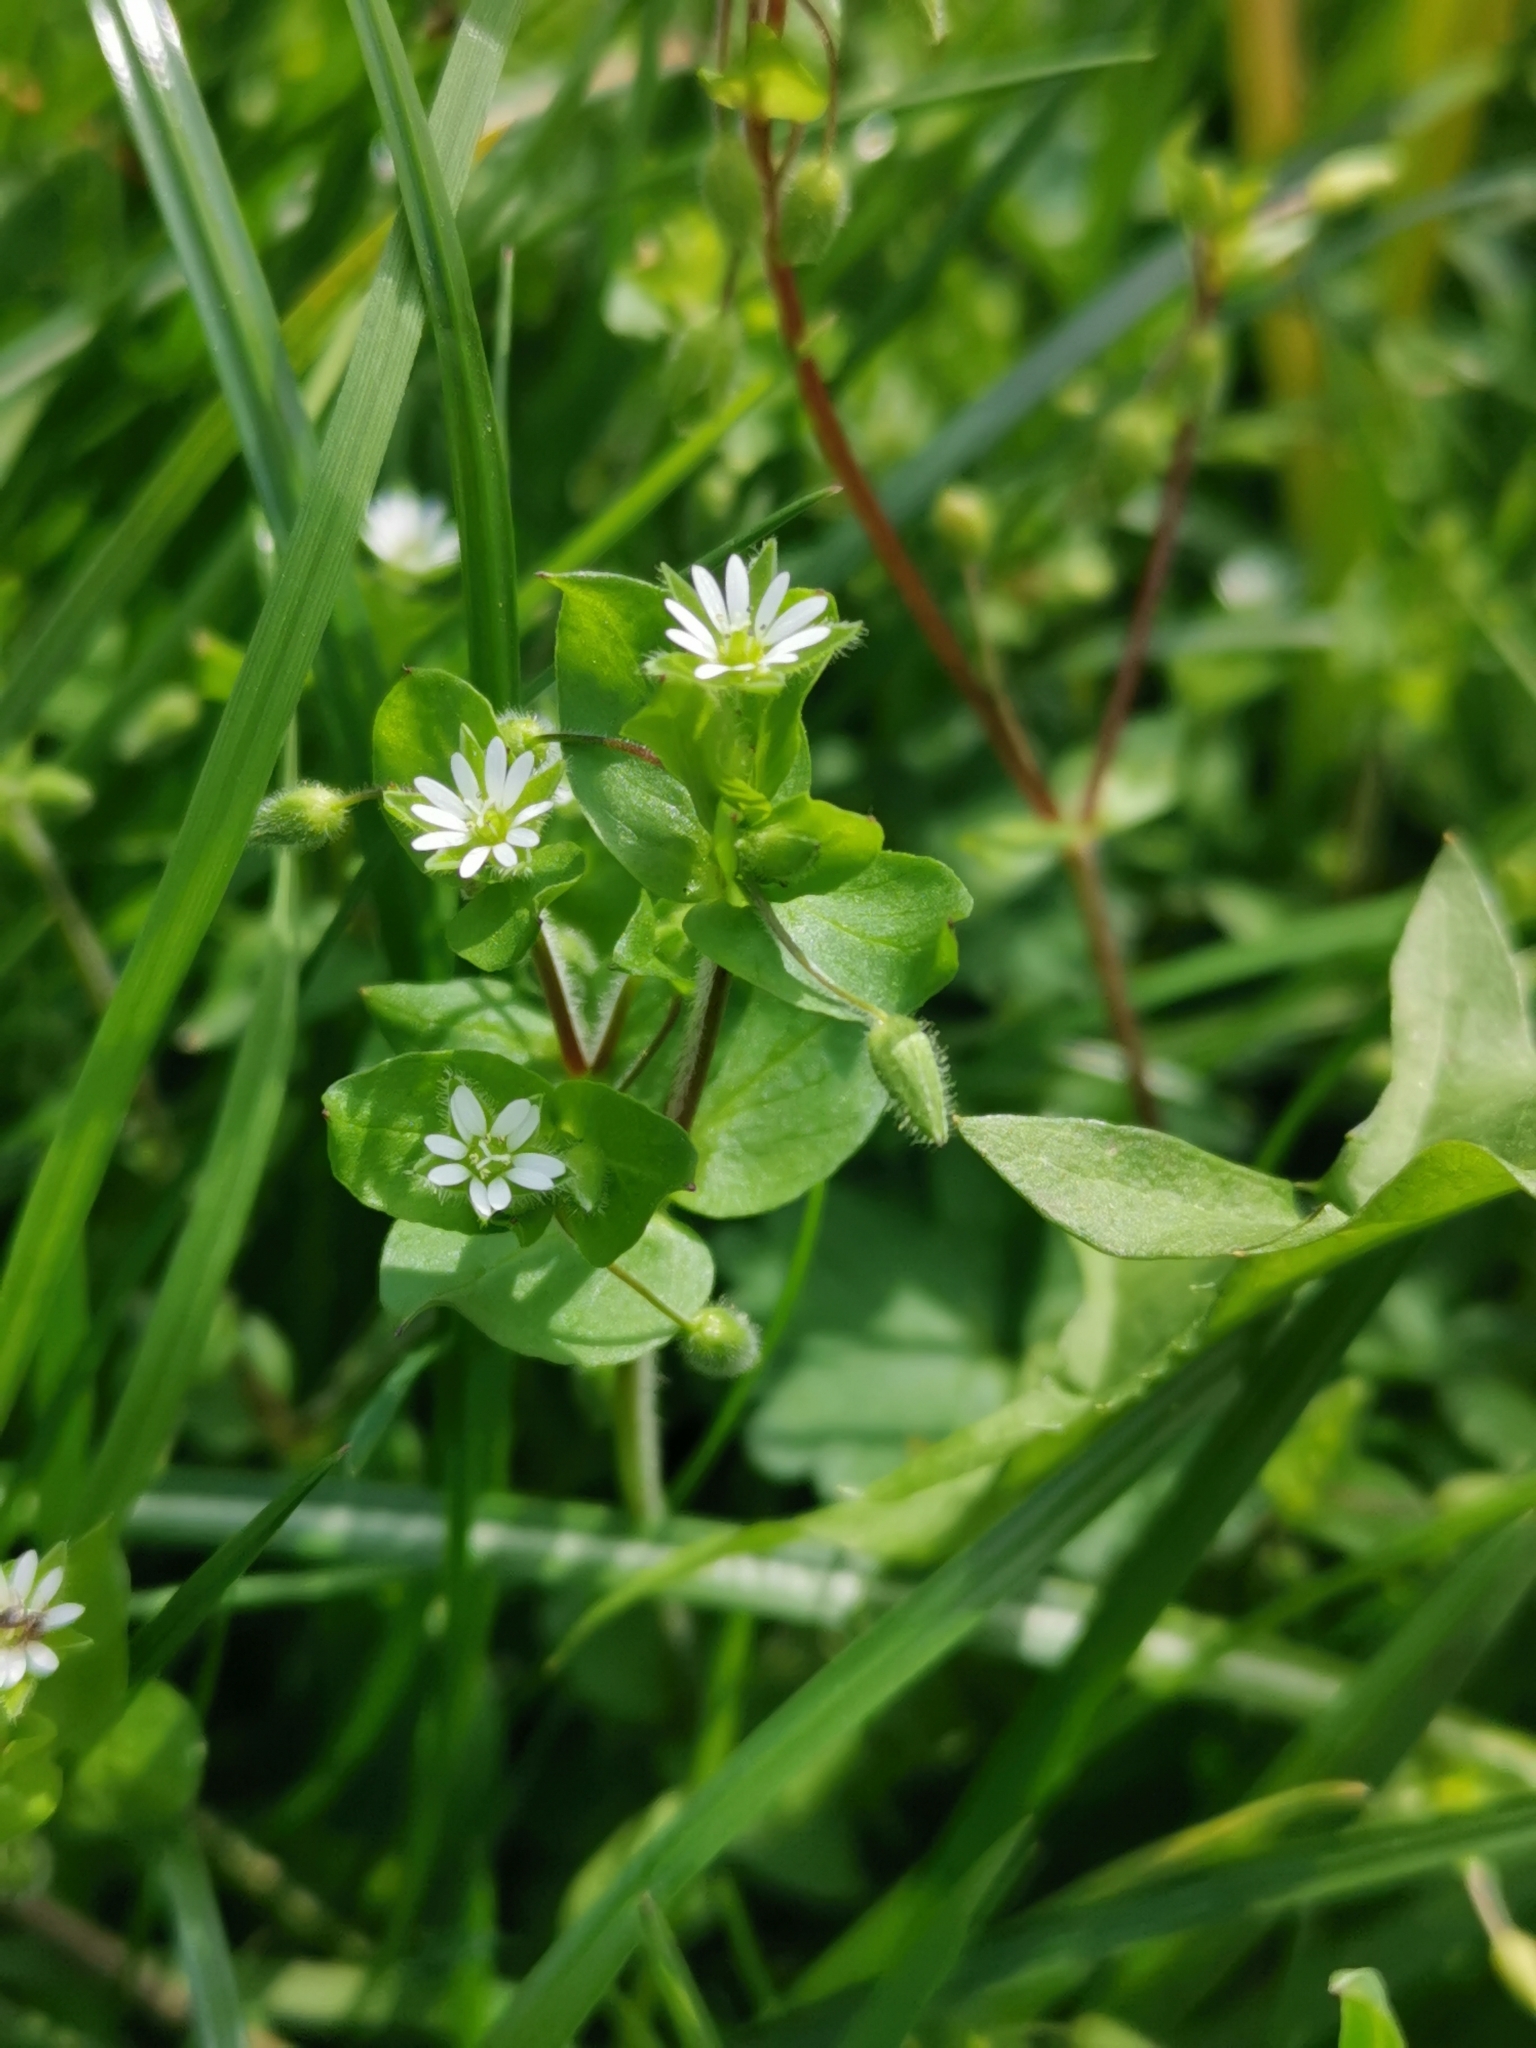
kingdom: Plantae
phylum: Tracheophyta
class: Magnoliopsida
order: Caryophyllales
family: Caryophyllaceae
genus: Stellaria
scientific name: Stellaria media
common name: Common chickweed
